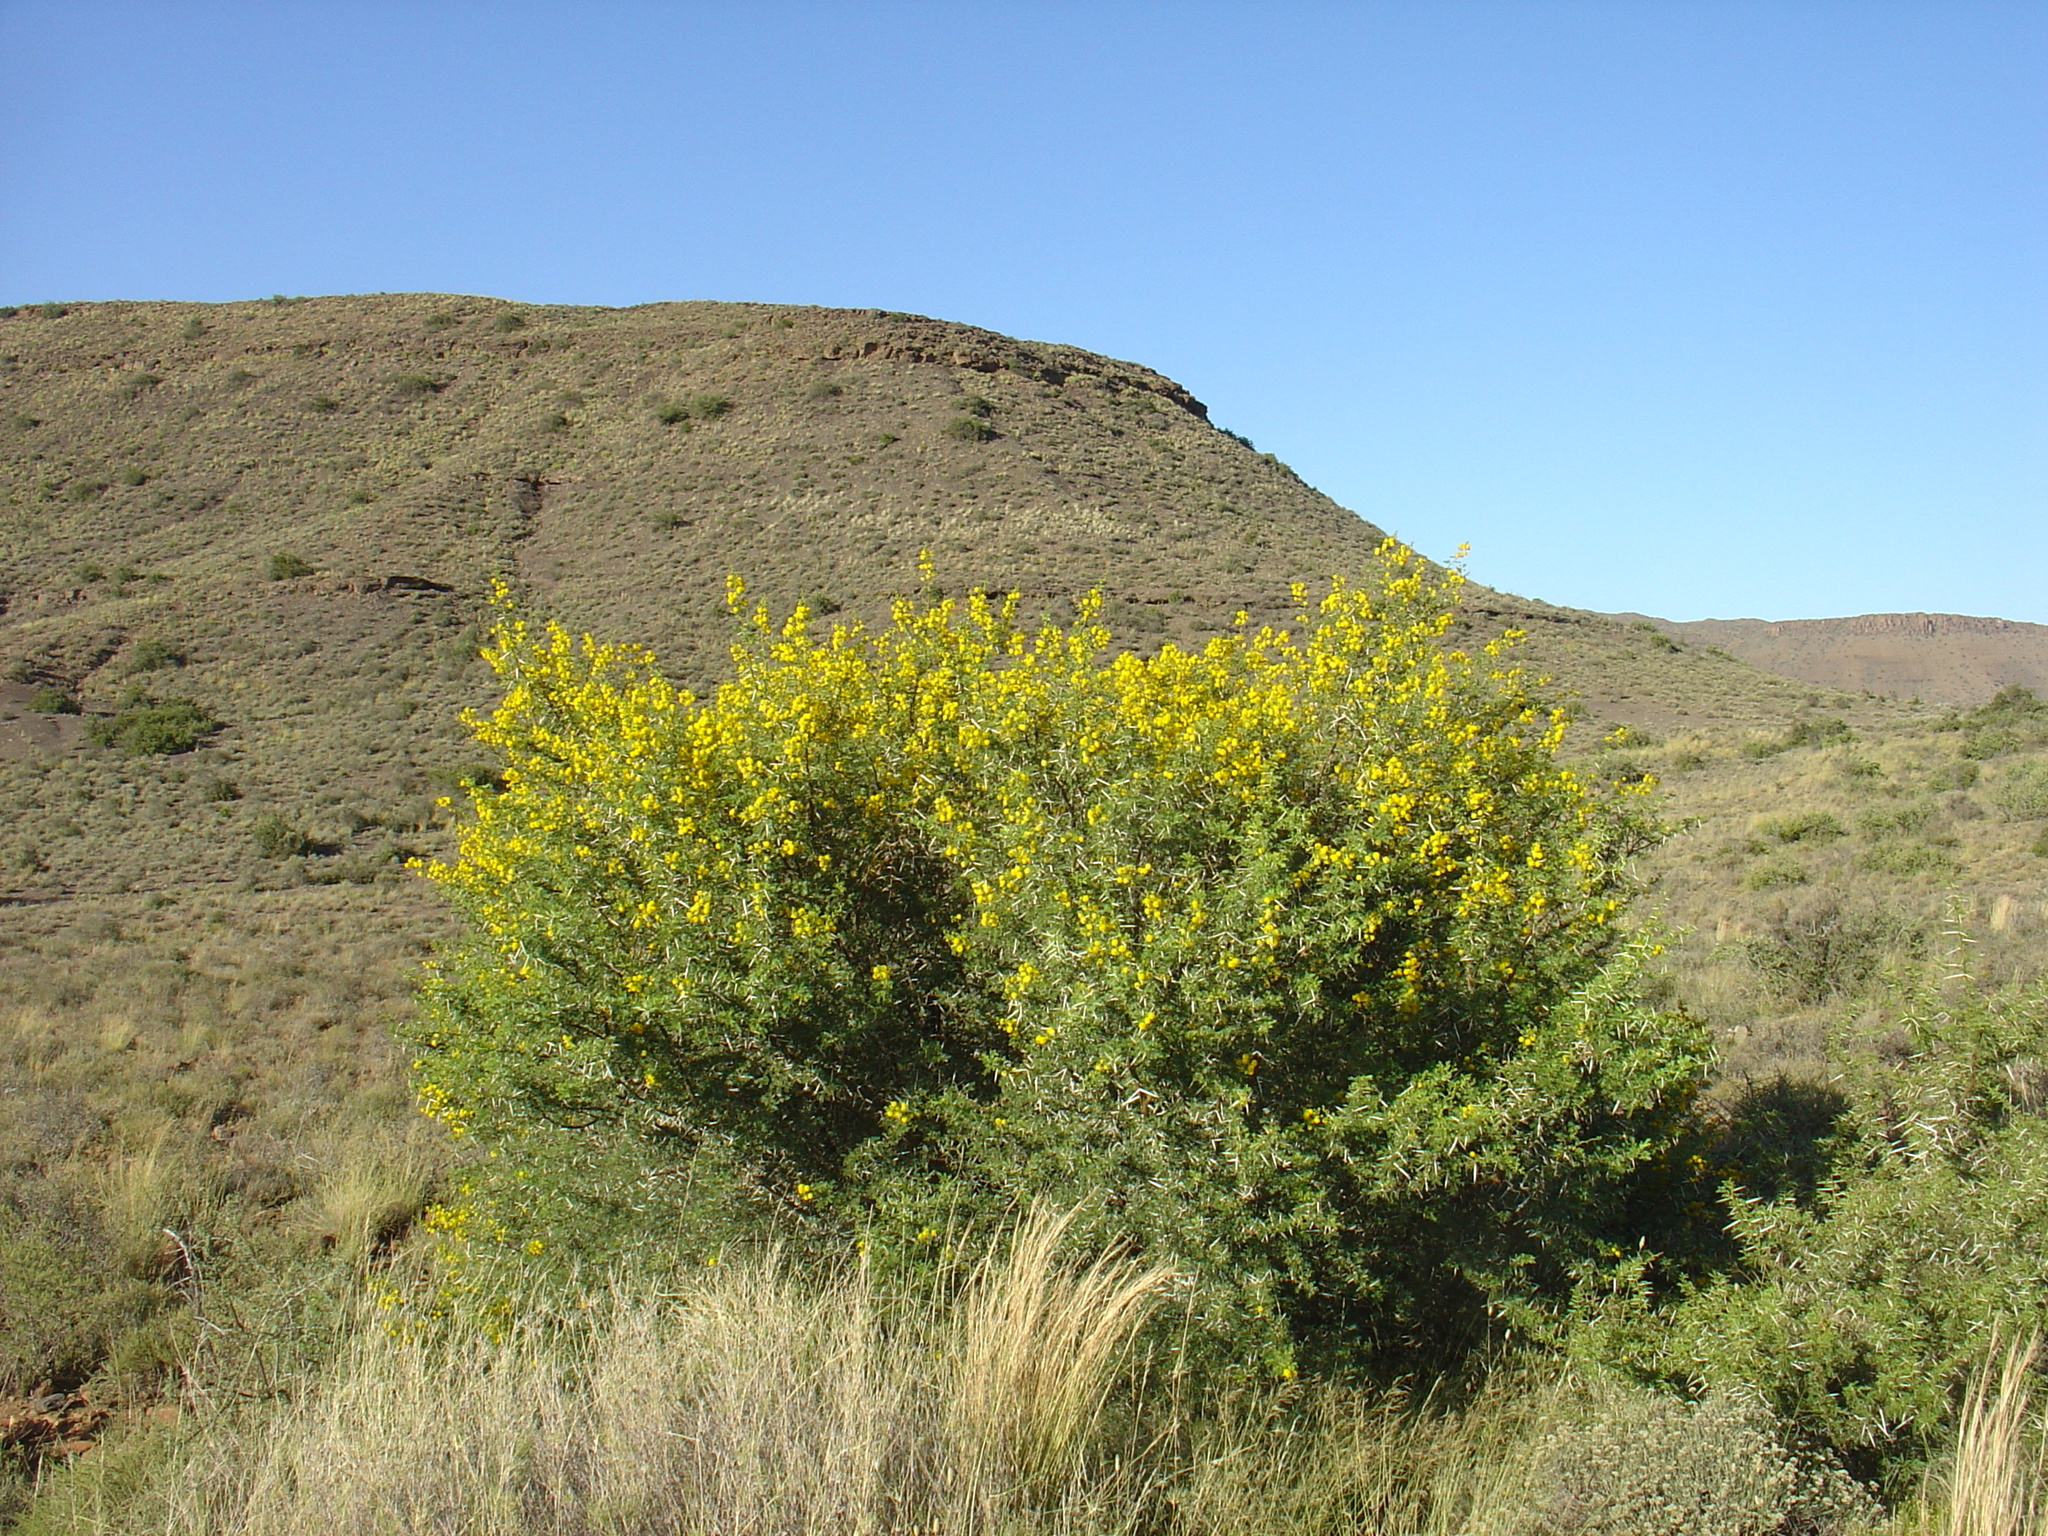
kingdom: Plantae
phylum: Tracheophyta
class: Magnoliopsida
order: Fabales
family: Fabaceae
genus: Vachellia
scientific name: Vachellia karroo
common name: Sweet thorn
